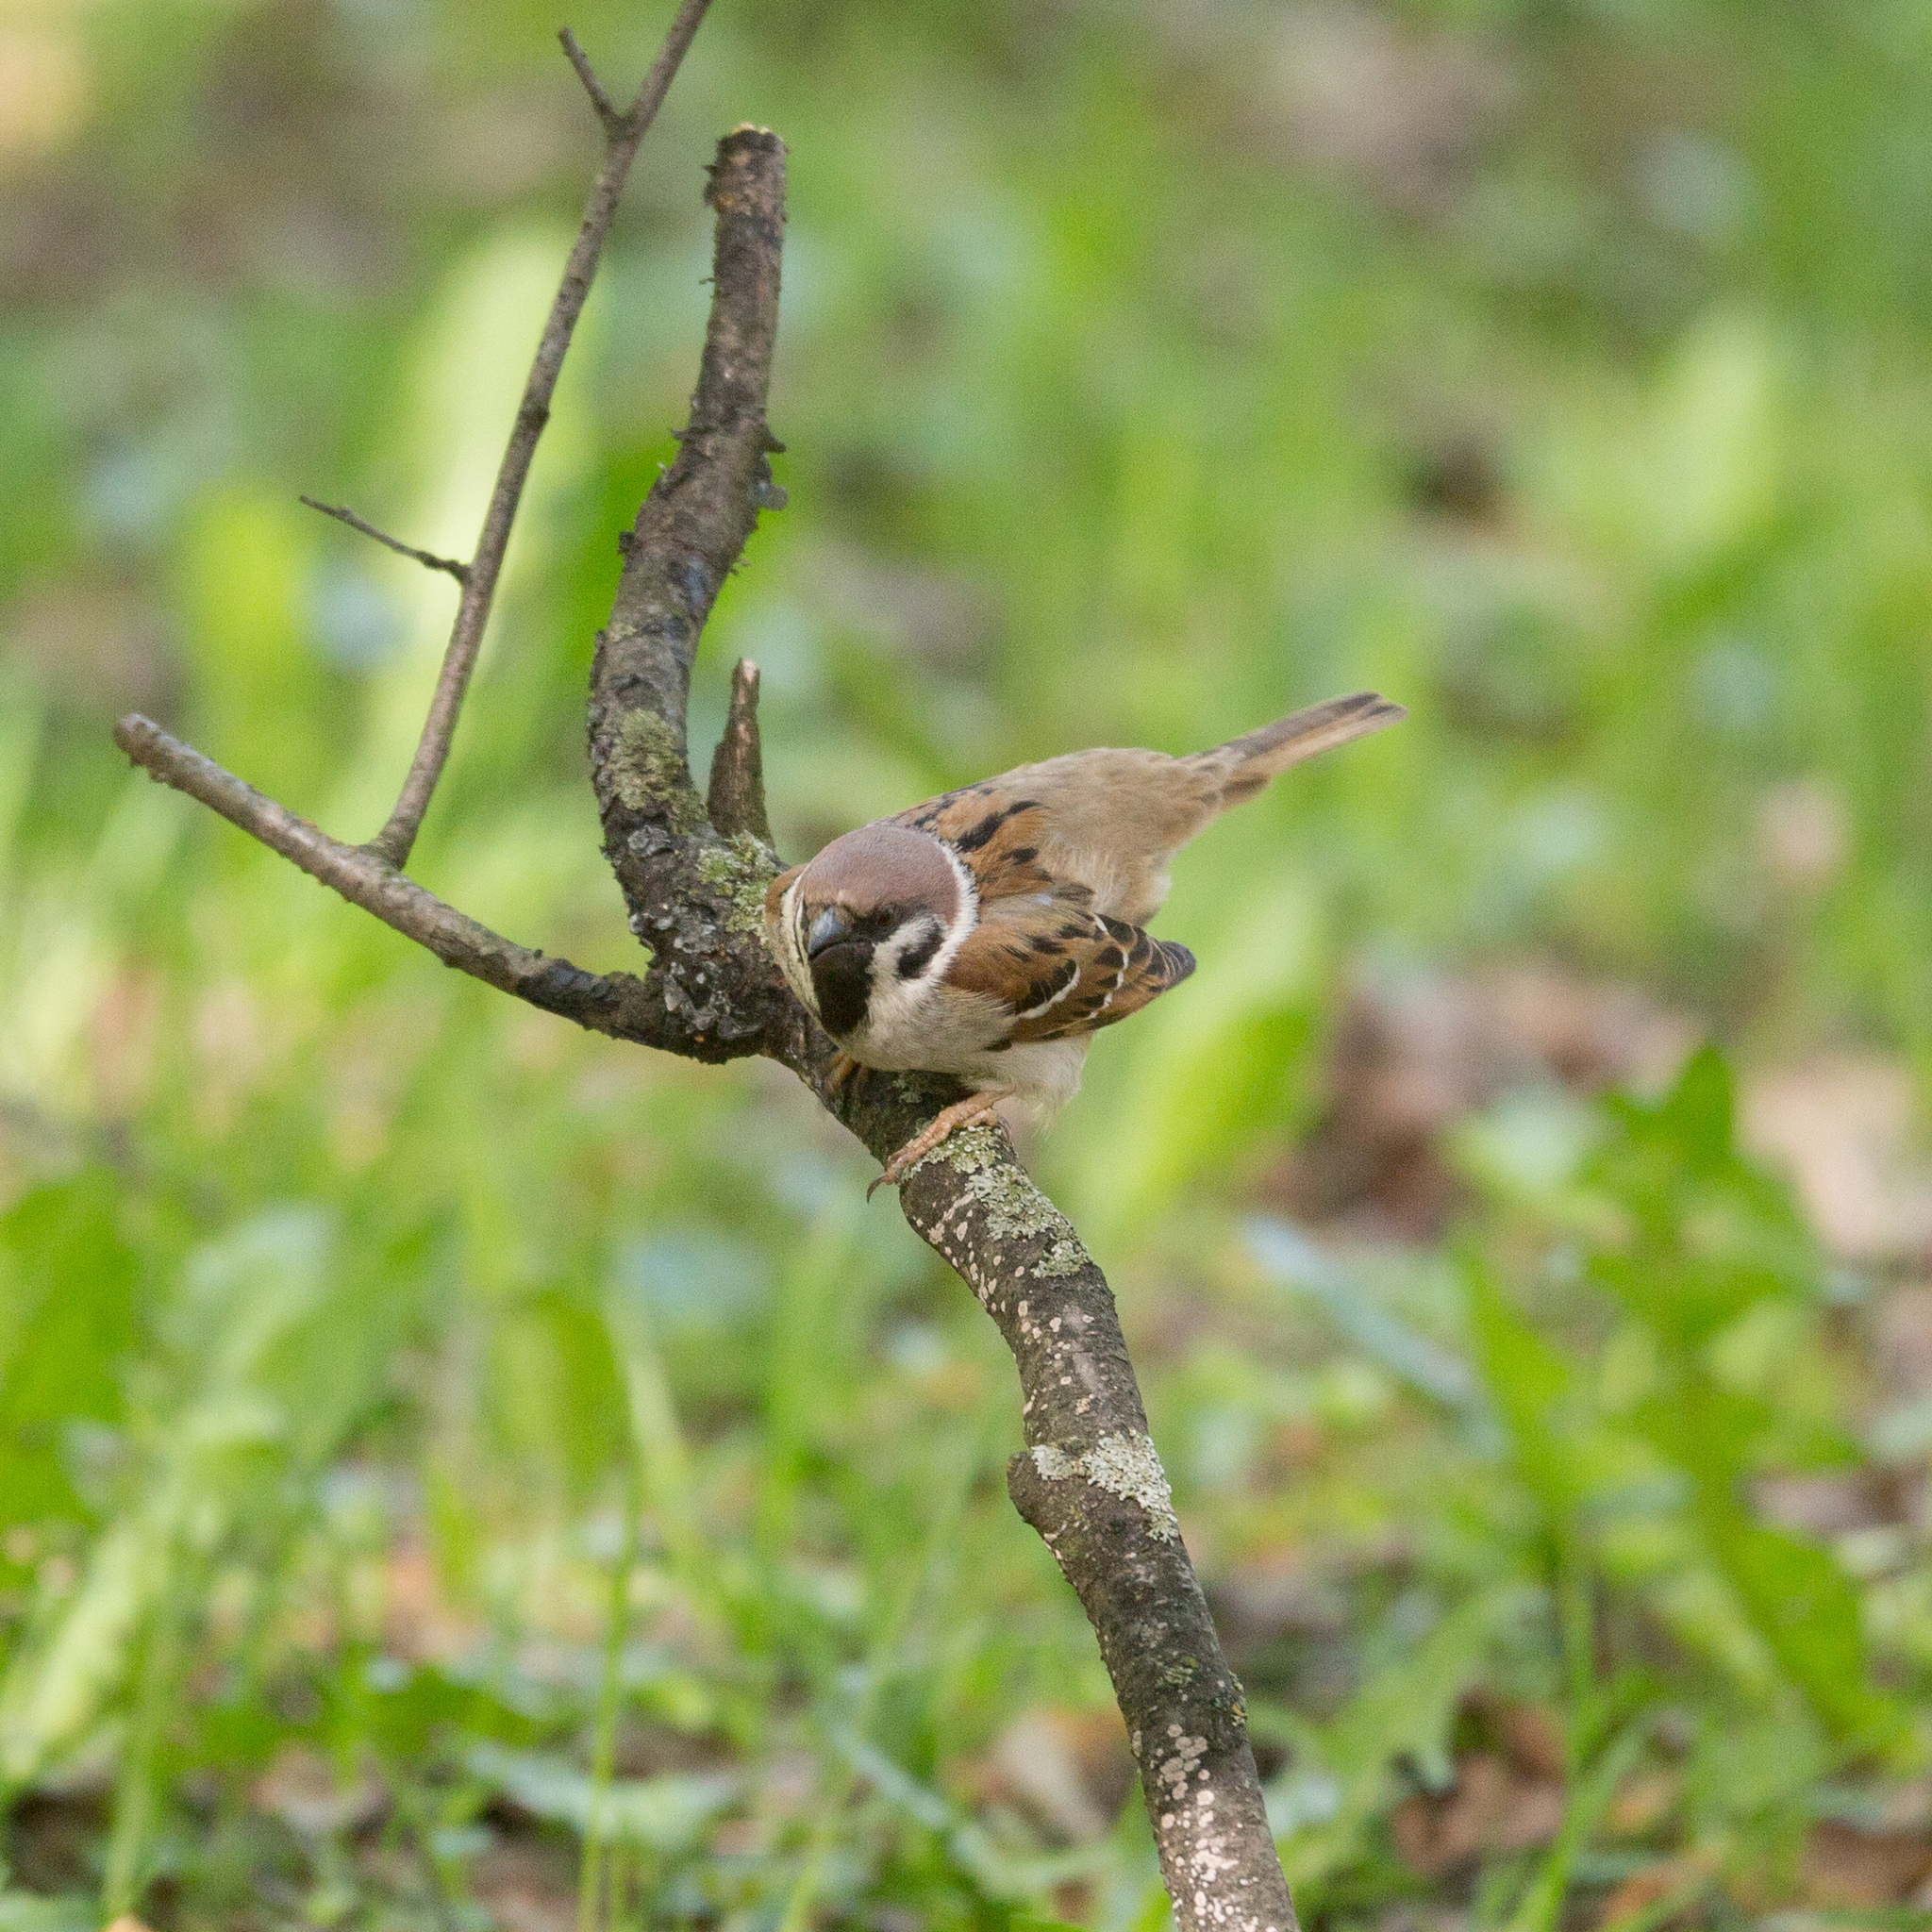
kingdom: Animalia
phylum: Chordata
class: Aves
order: Passeriformes
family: Passeridae
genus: Passer
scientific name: Passer montanus
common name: Eurasian tree sparrow
